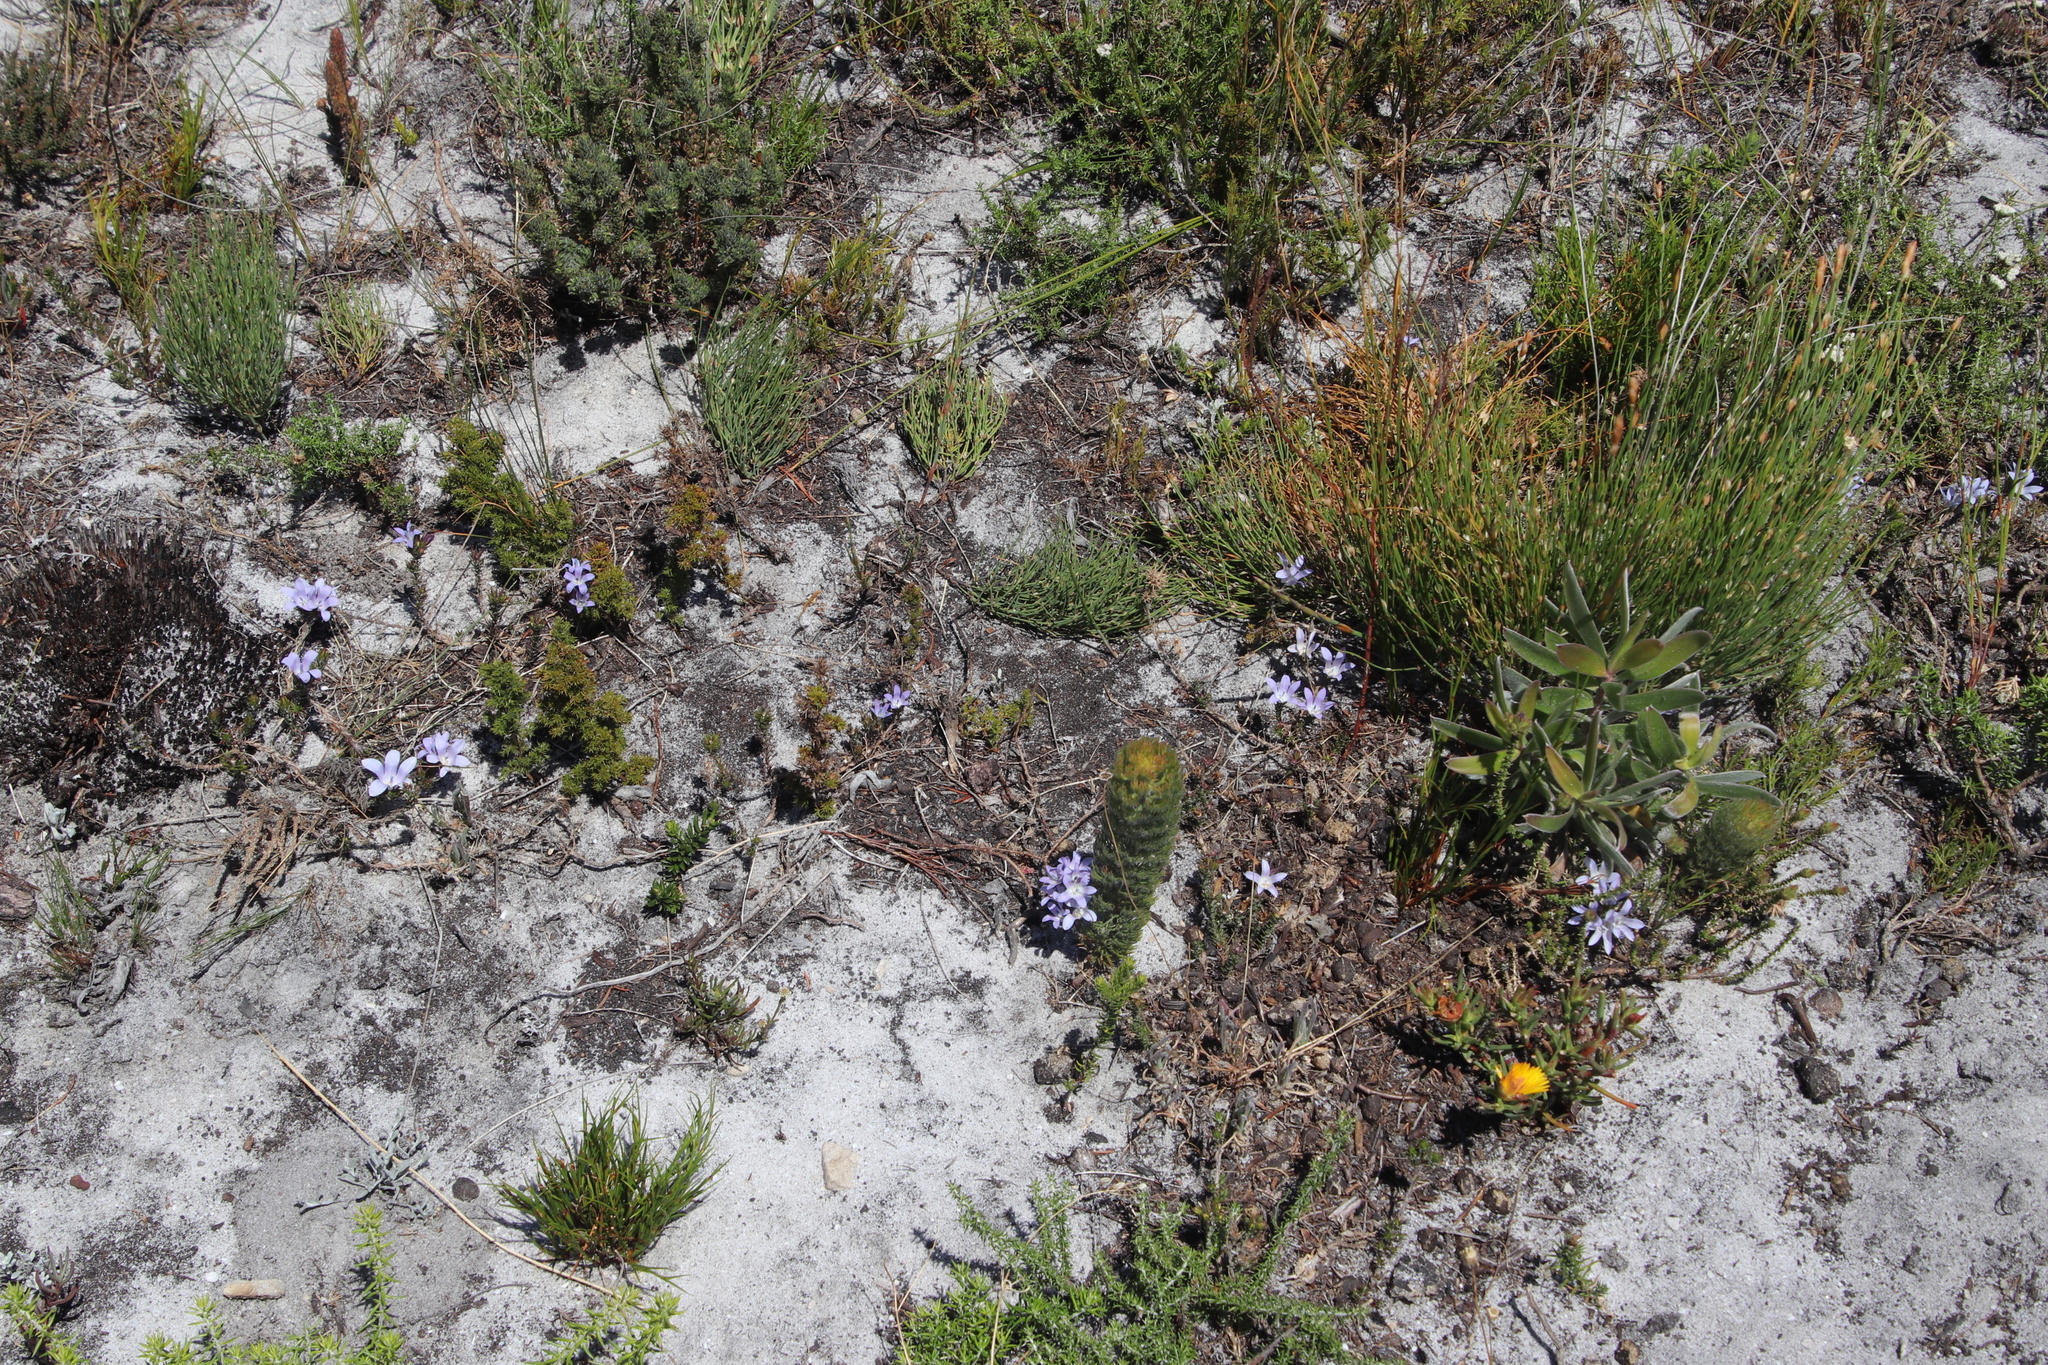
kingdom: Plantae
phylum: Tracheophyta
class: Magnoliopsida
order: Proteales
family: Proteaceae
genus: Serruria
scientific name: Serruria villosa
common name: Golden spiderhead
